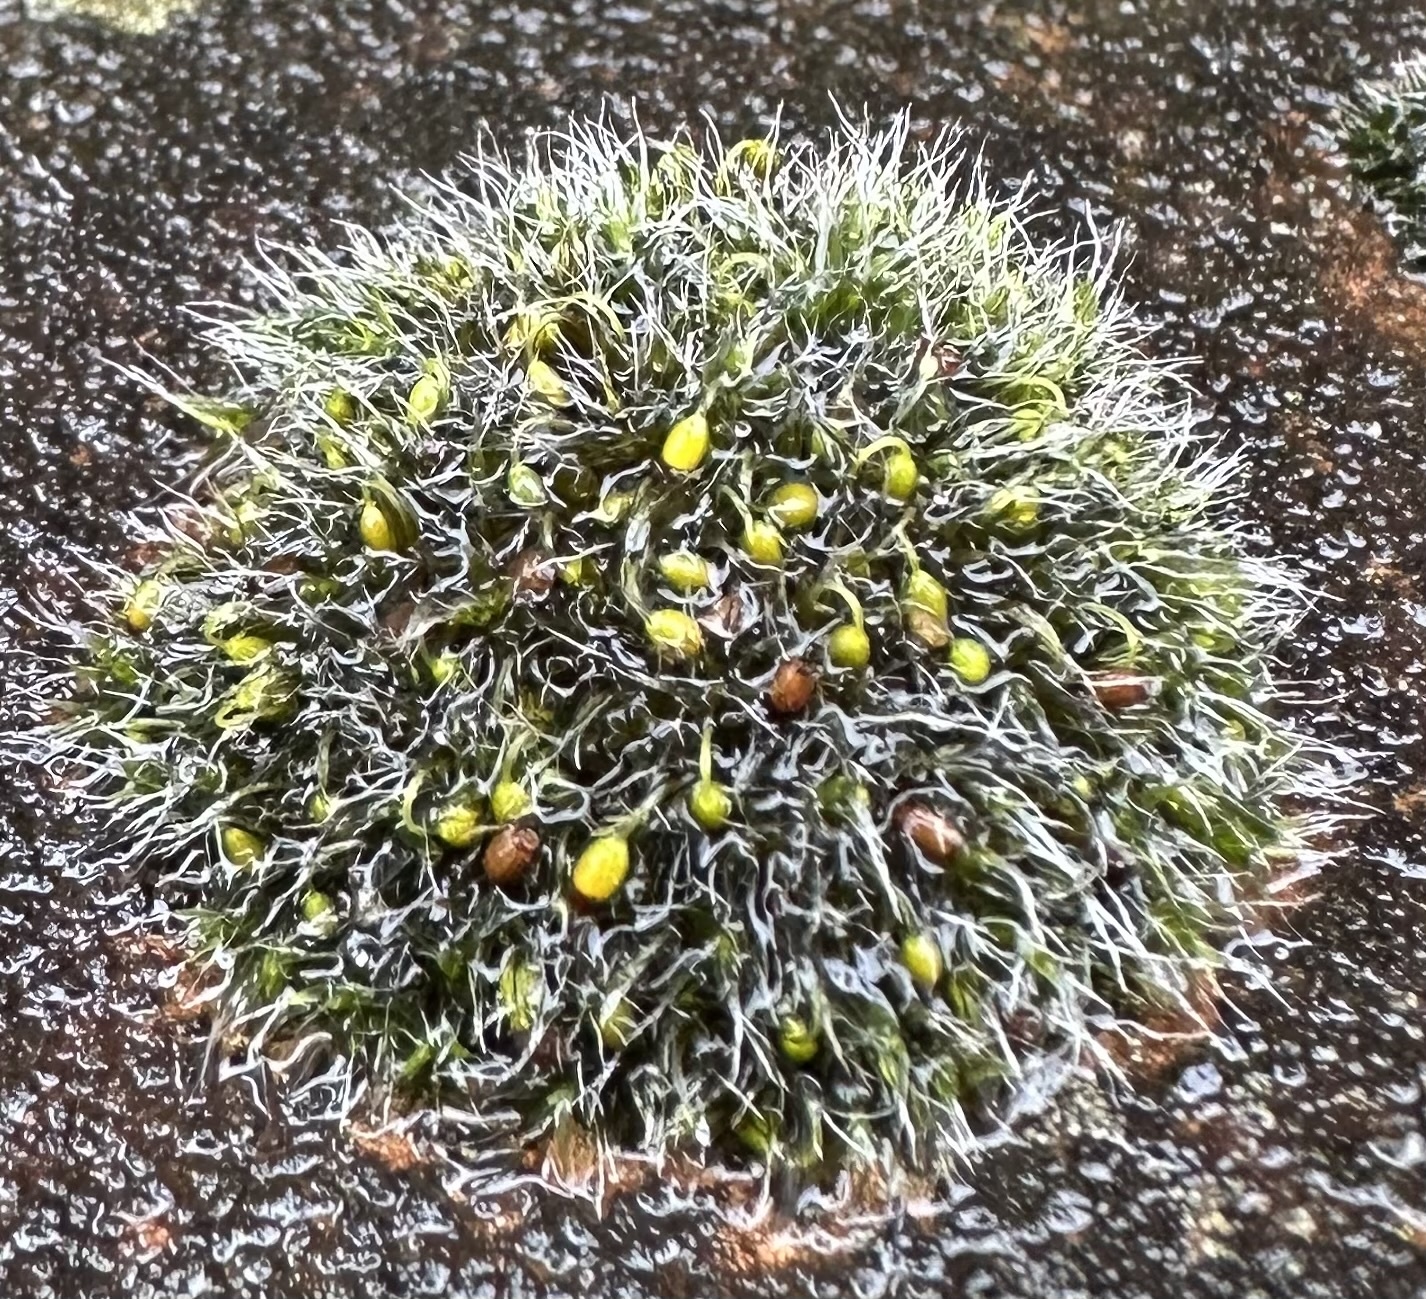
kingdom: Plantae
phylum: Bryophyta
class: Bryopsida
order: Grimmiales
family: Grimmiaceae
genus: Grimmia
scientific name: Grimmia pulvinata
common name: Grey-cushioned grimmia
